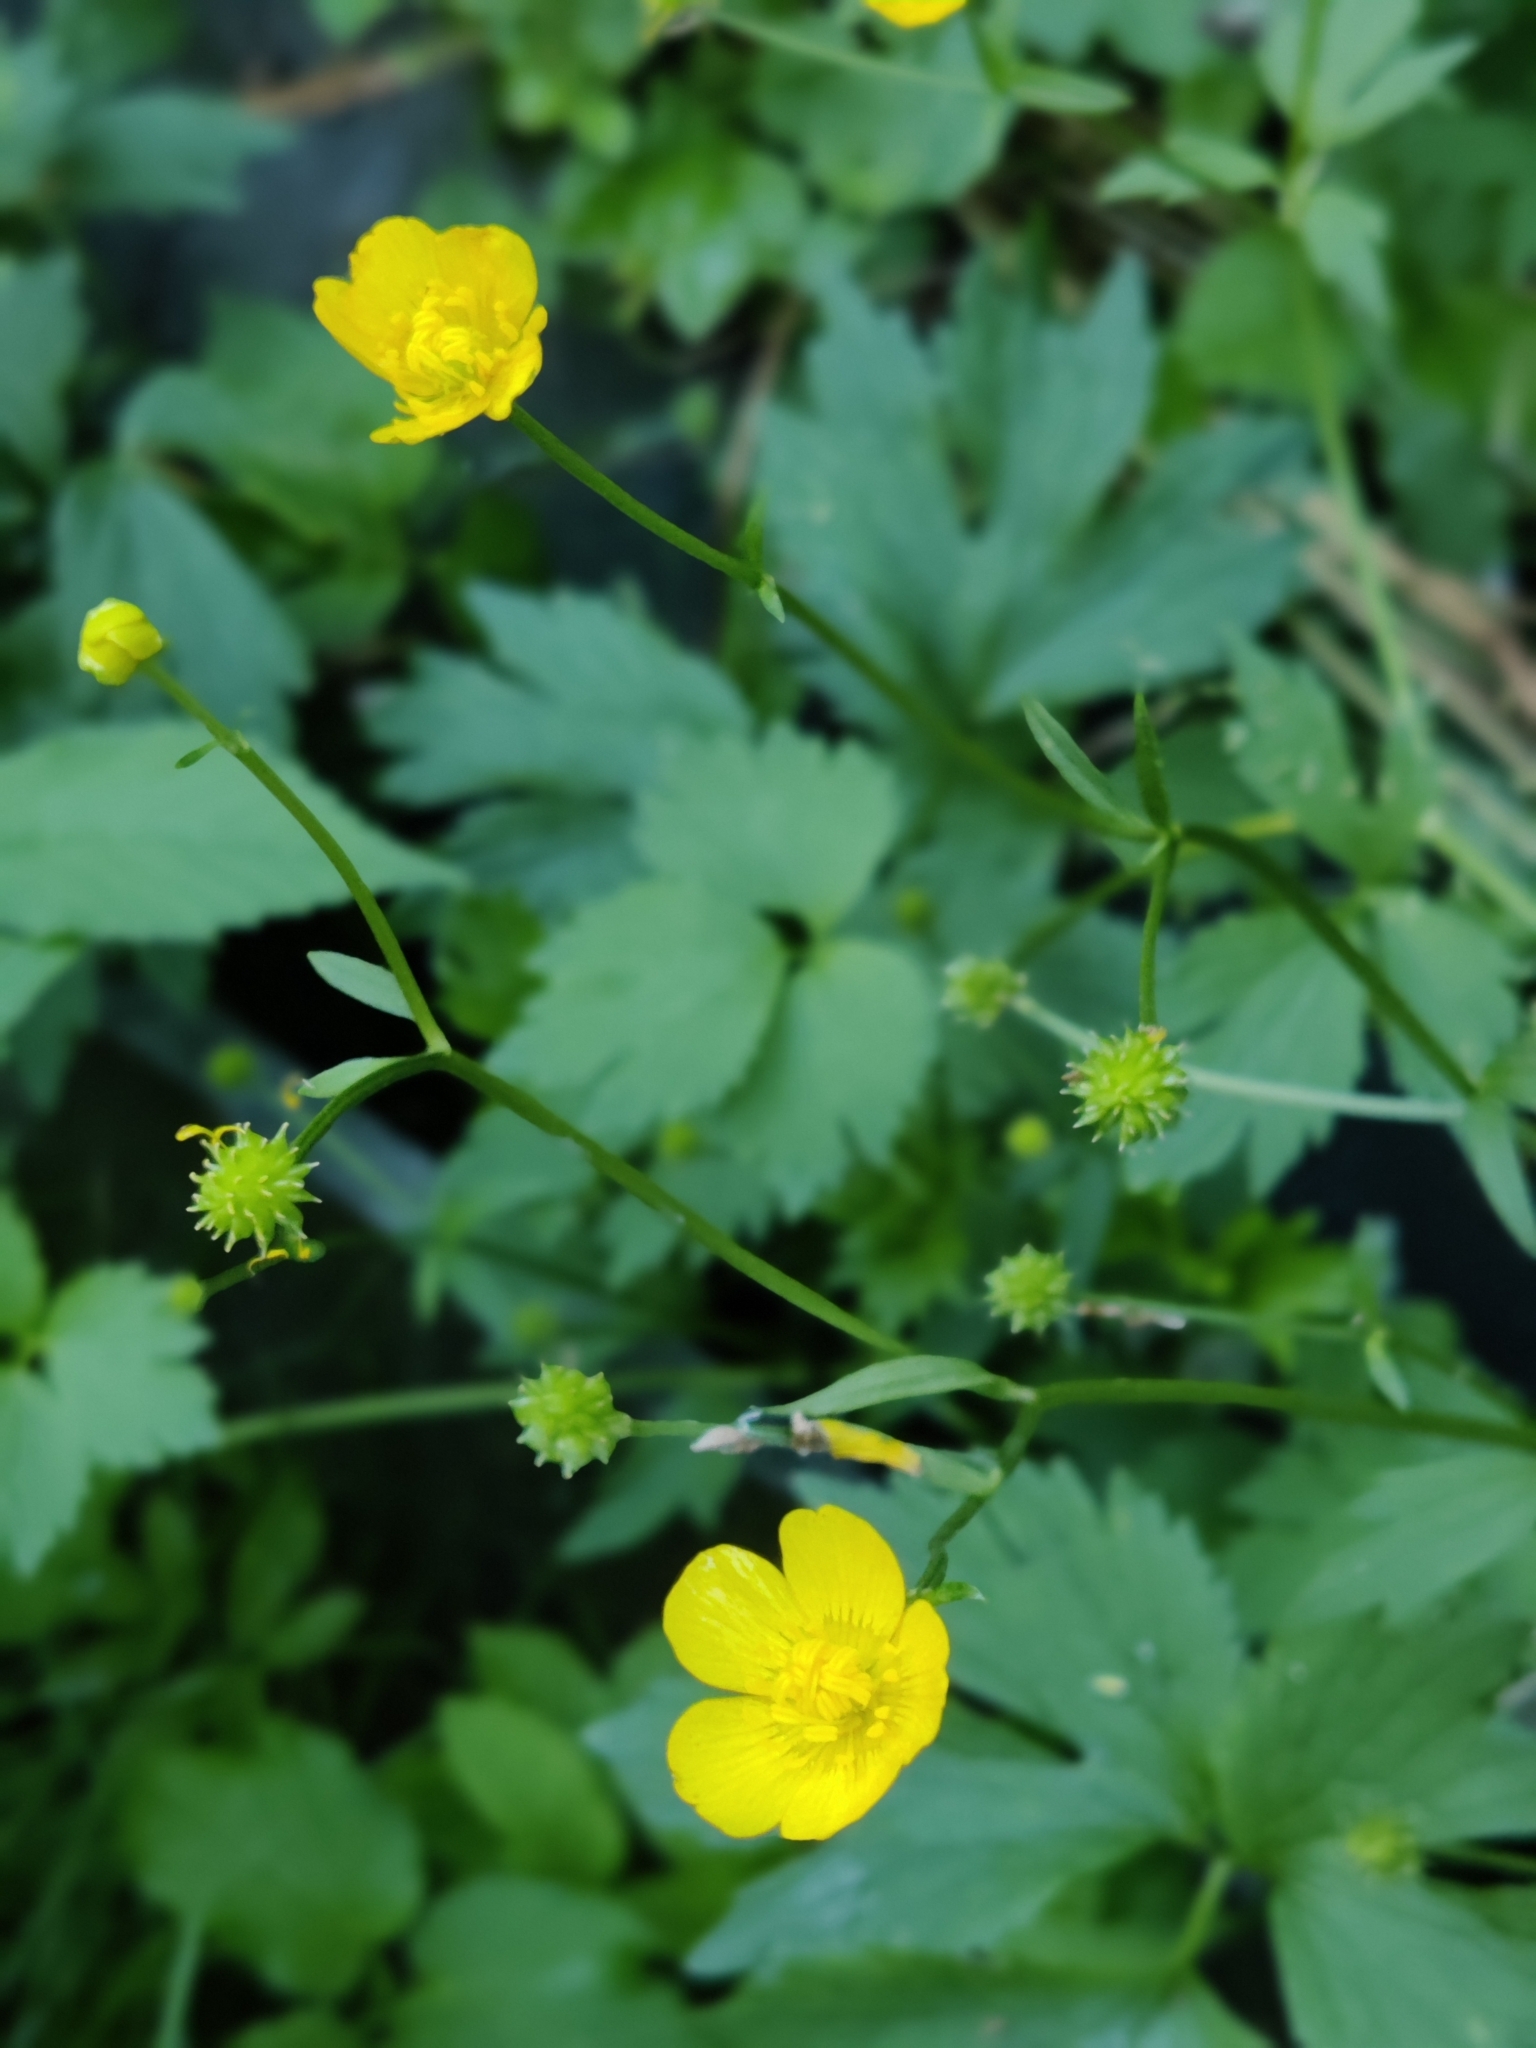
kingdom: Plantae
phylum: Tracheophyta
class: Magnoliopsida
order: Ranunculales
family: Ranunculaceae
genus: Ranunculus
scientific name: Ranunculus repens
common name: Creeping buttercup
